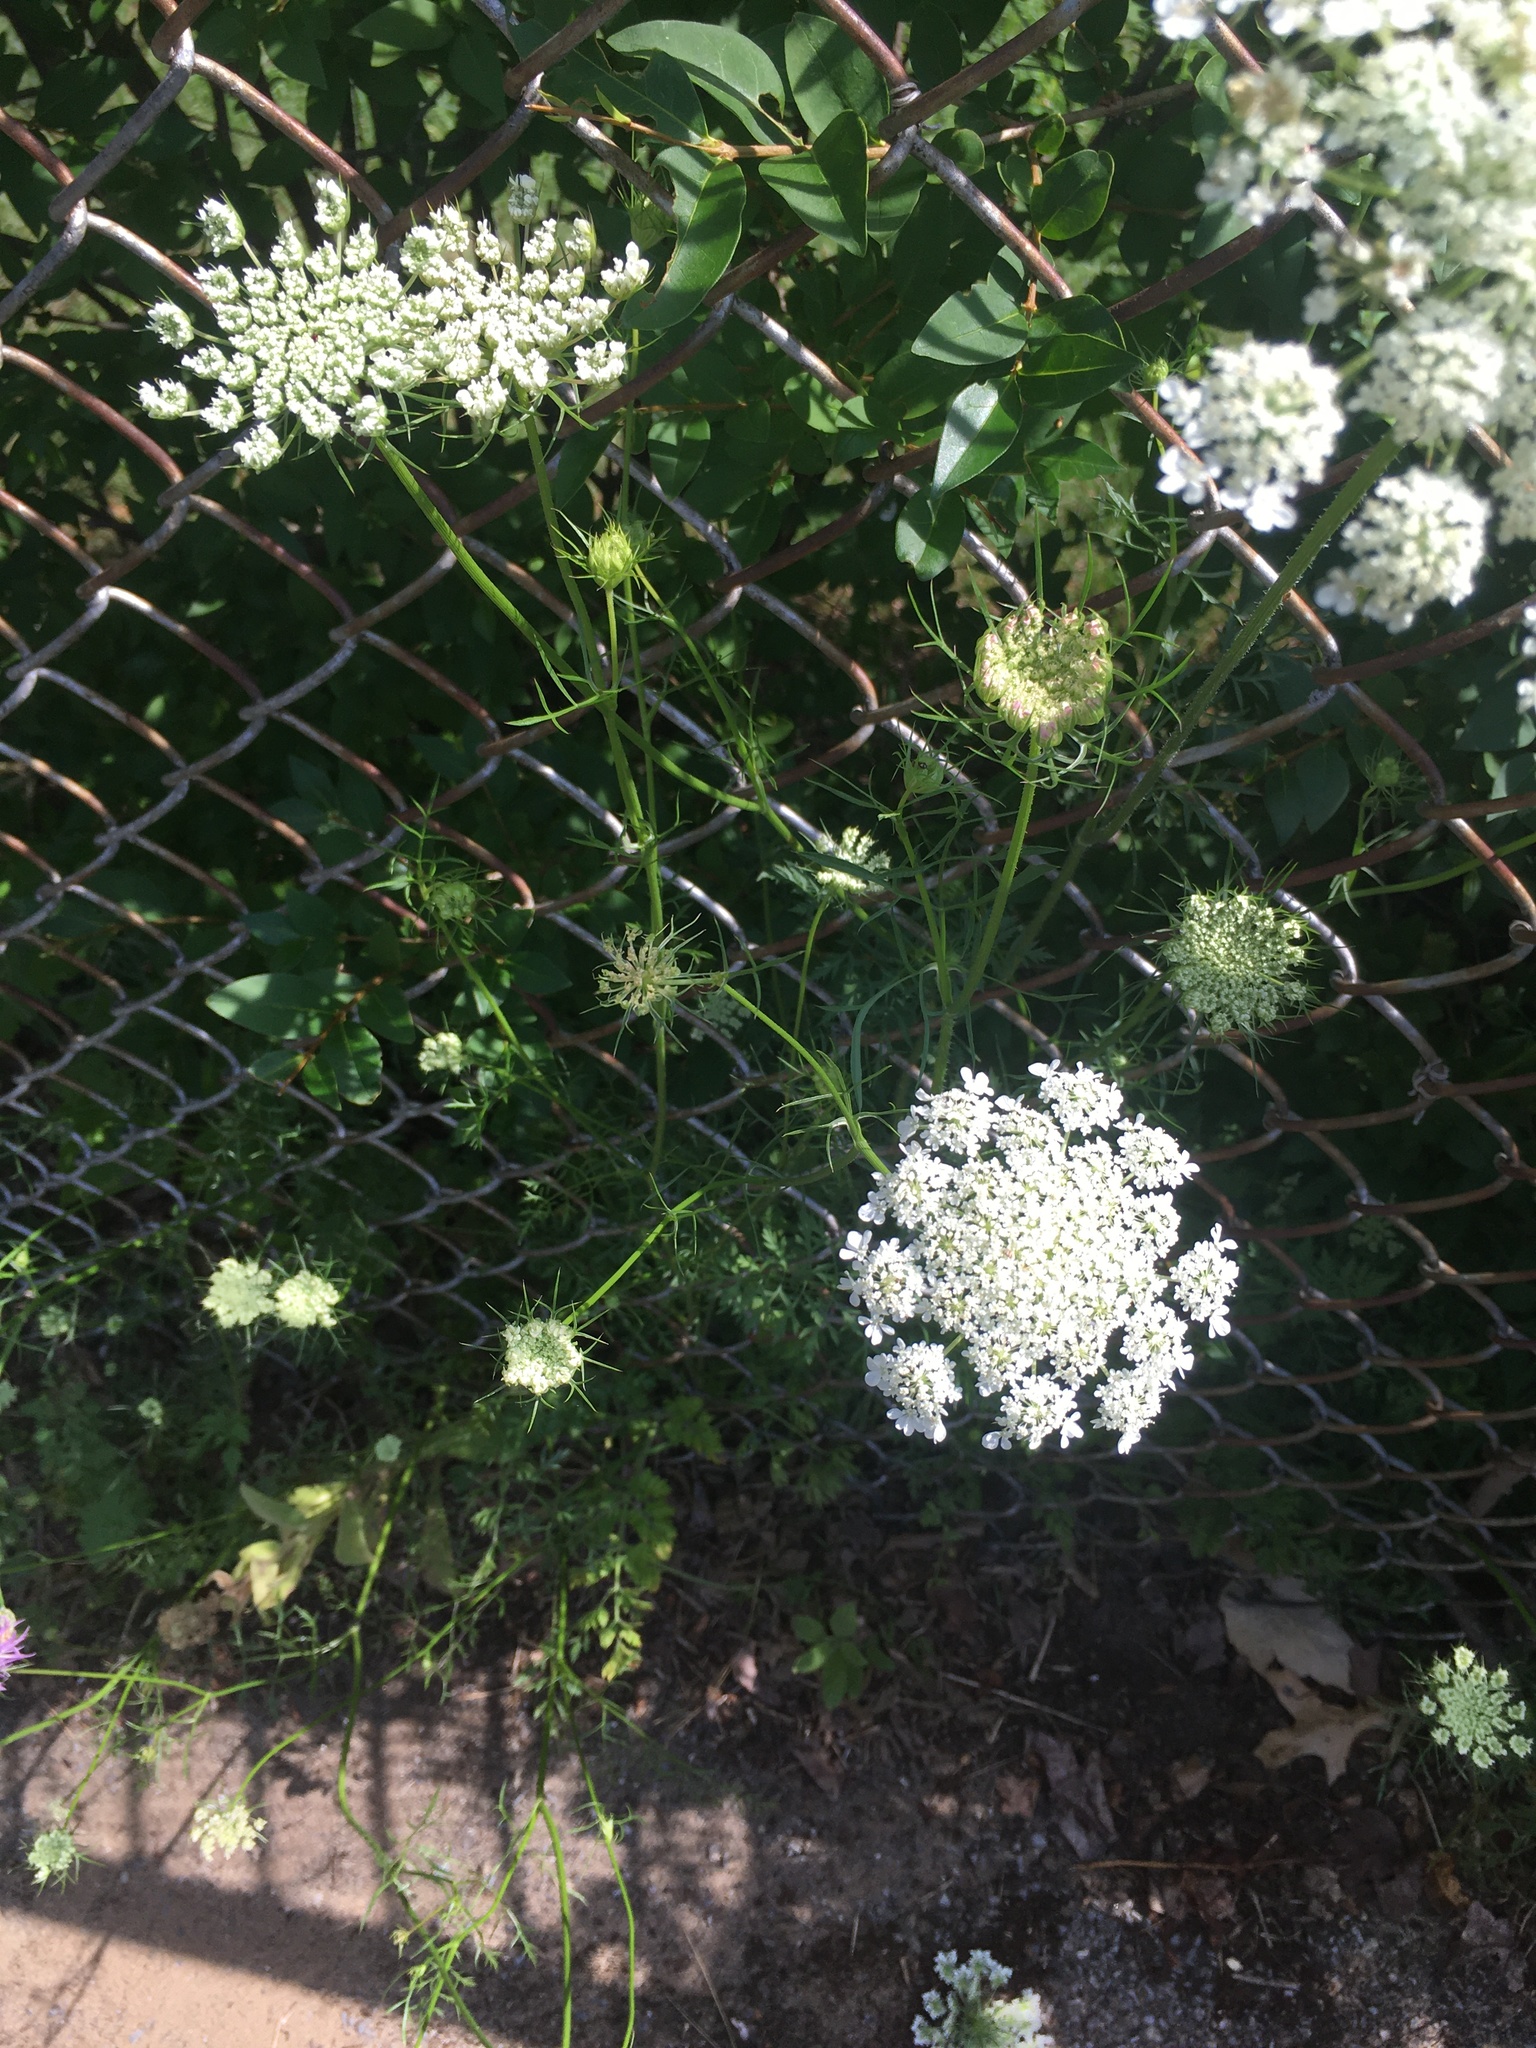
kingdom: Plantae
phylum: Tracheophyta
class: Magnoliopsida
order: Apiales
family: Apiaceae
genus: Daucus
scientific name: Daucus carota
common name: Wild carrot
